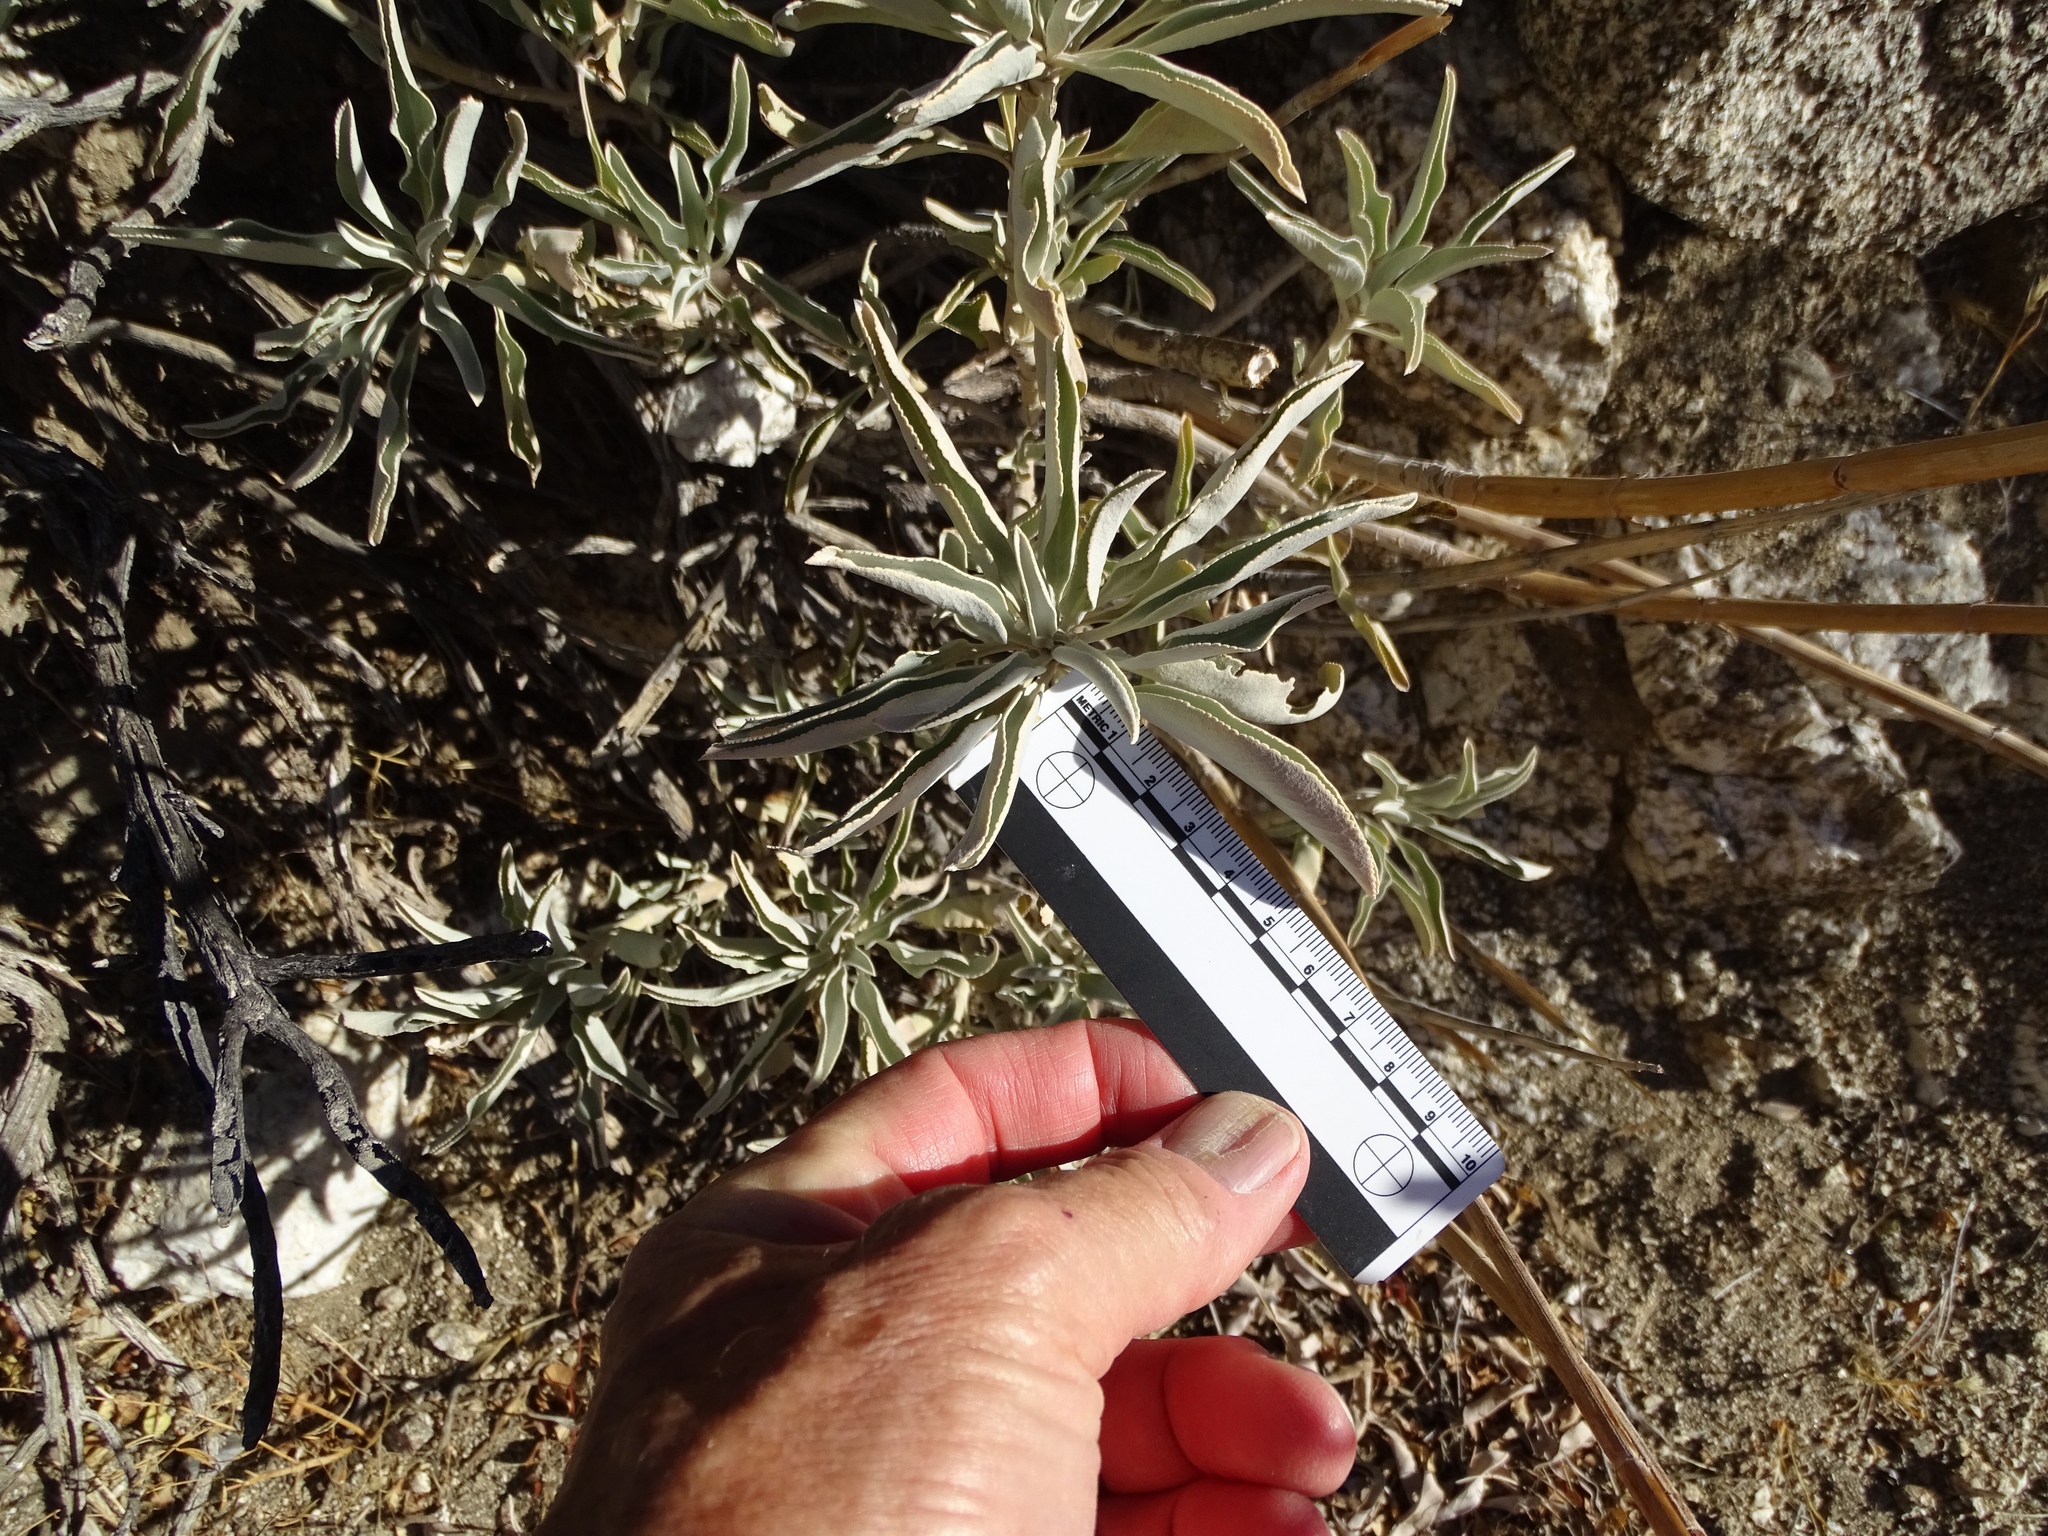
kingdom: Plantae
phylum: Tracheophyta
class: Magnoliopsida
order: Lamiales
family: Lamiaceae
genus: Salvia
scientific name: Salvia apiana
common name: White sage
